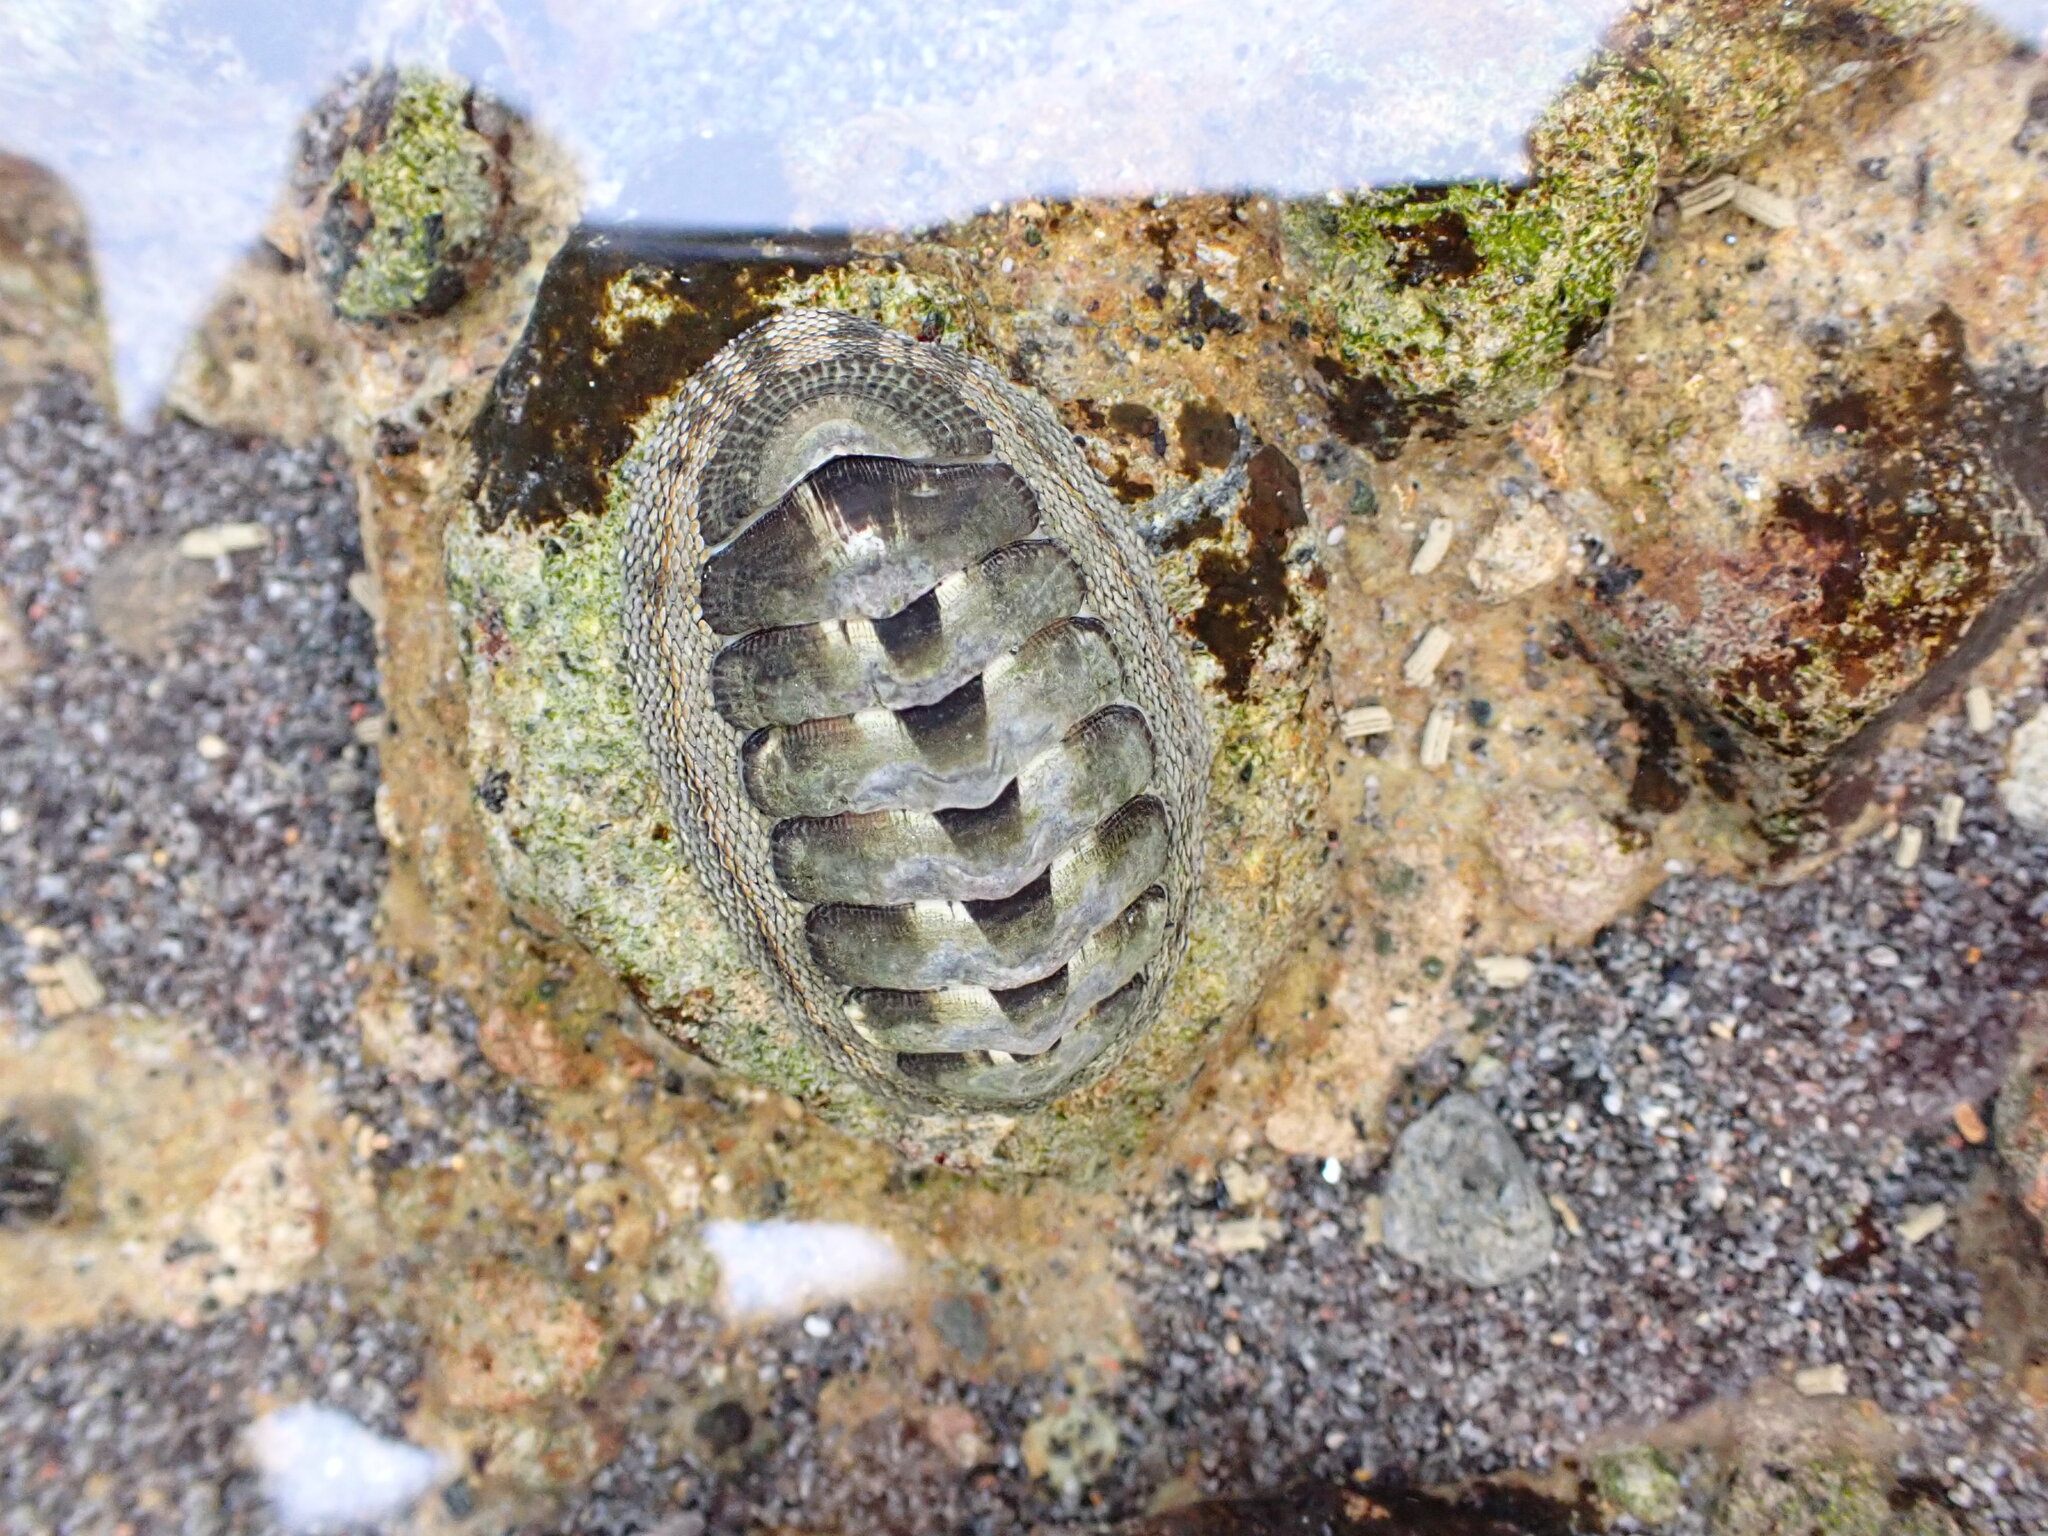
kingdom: Animalia
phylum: Mollusca
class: Polyplacophora
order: Chitonida
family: Chitonidae
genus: Sypharochiton
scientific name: Sypharochiton pelliserpentis
